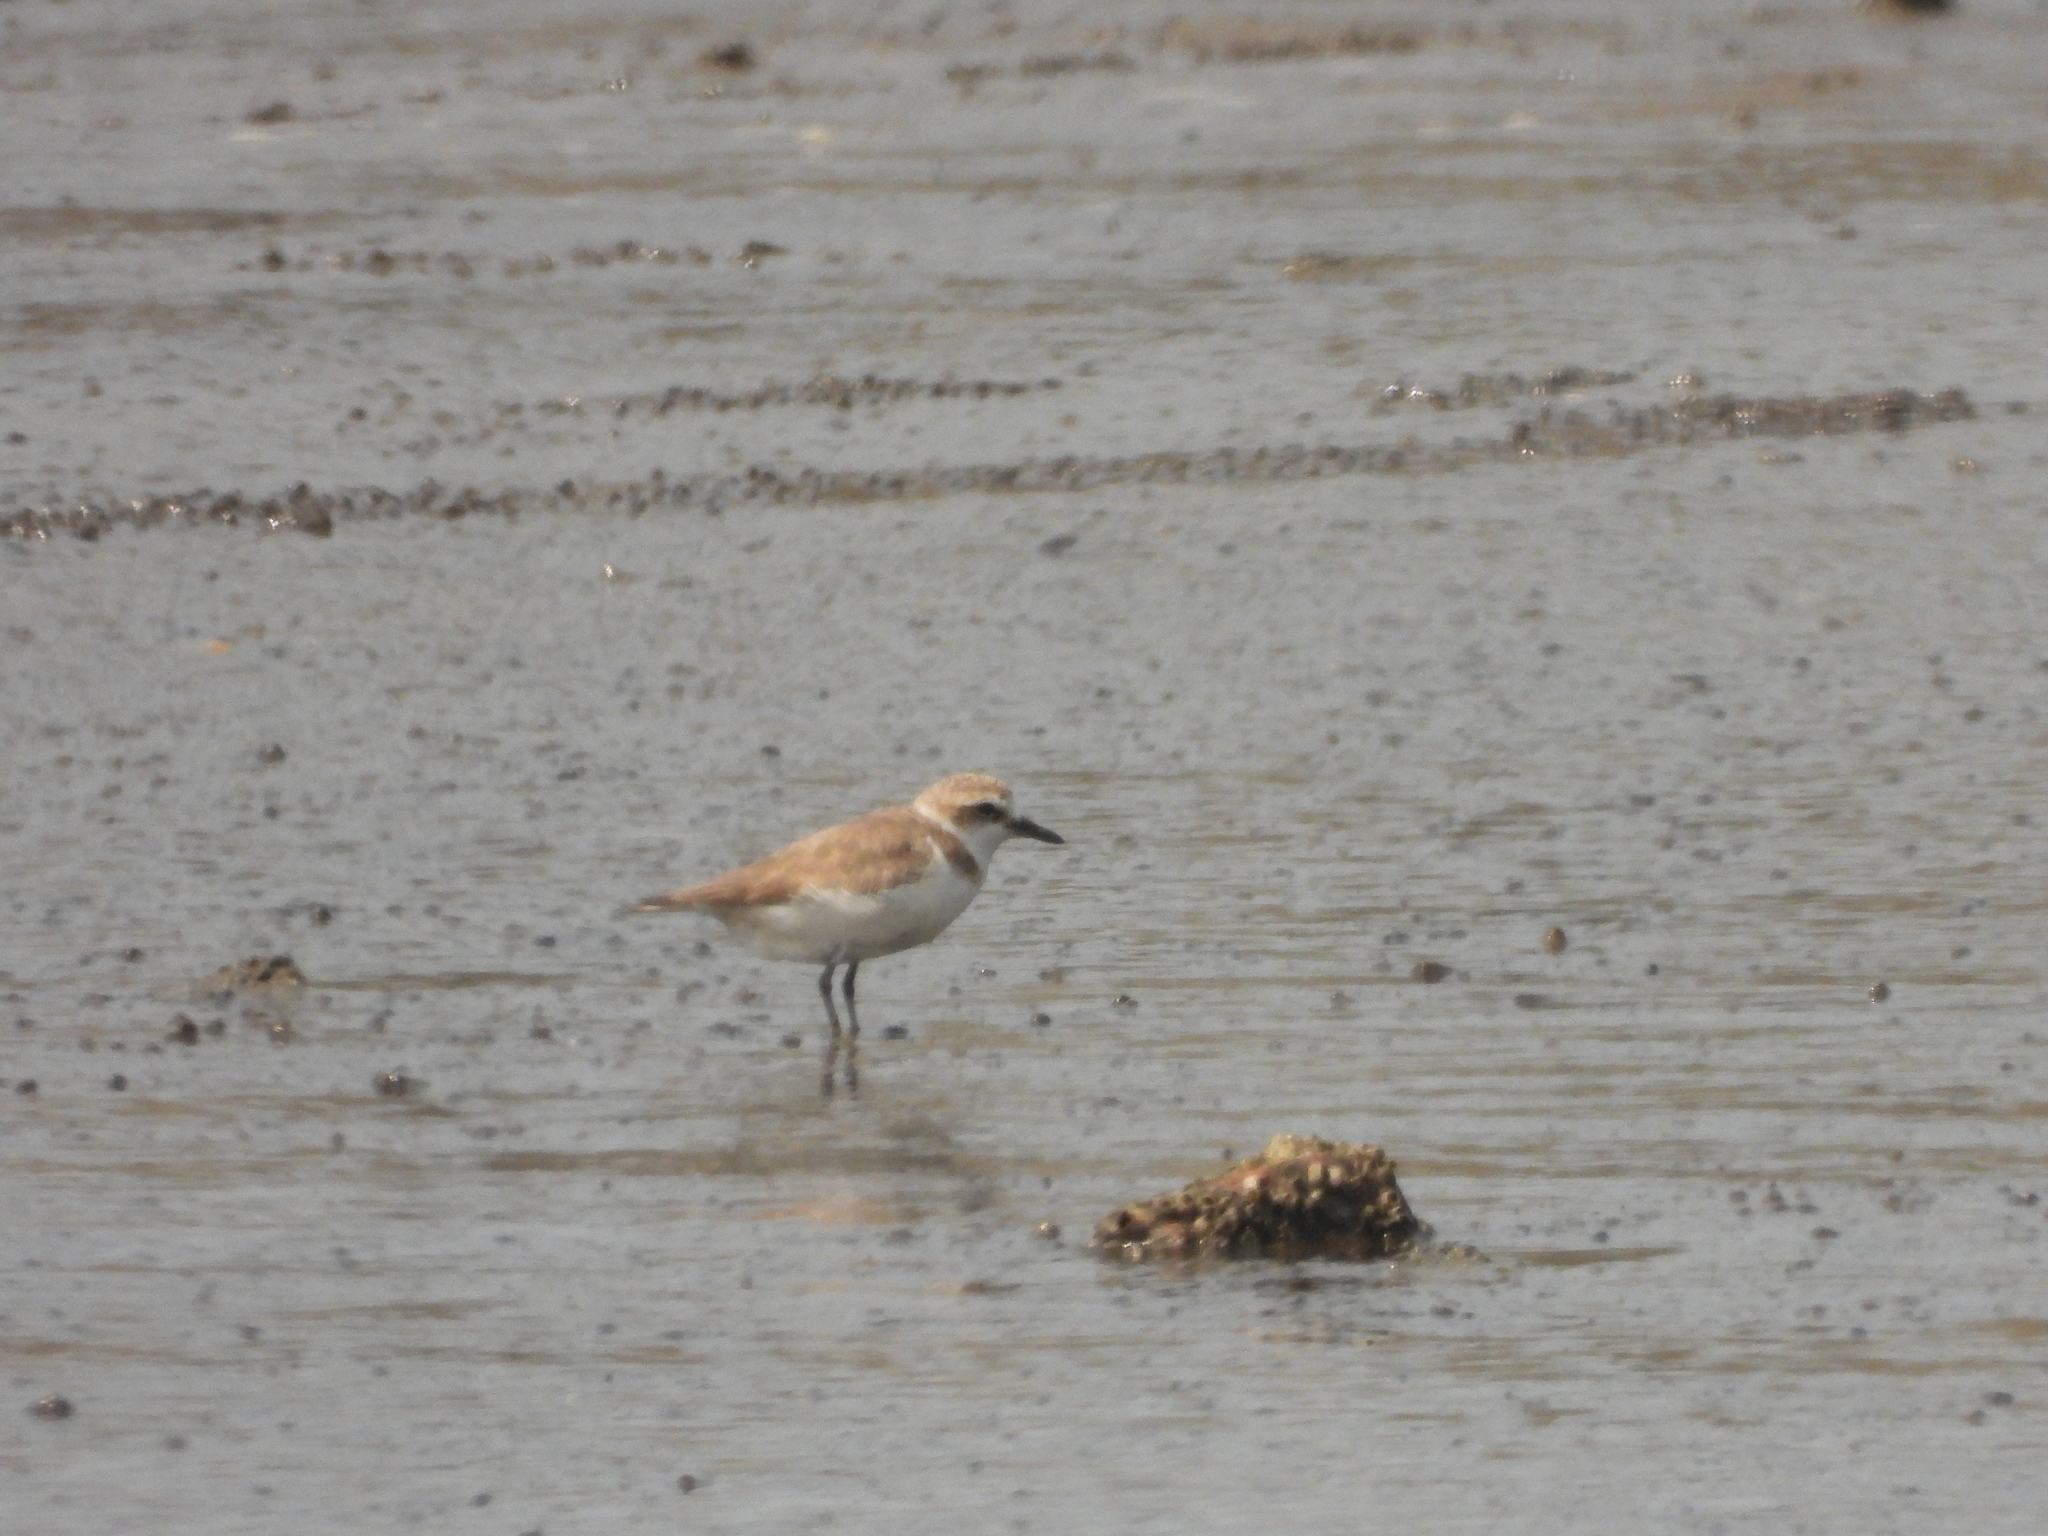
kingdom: Animalia
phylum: Chordata
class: Aves
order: Charadriiformes
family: Charadriidae
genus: Charadrius
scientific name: Charadrius alexandrinus
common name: Kentish plover
